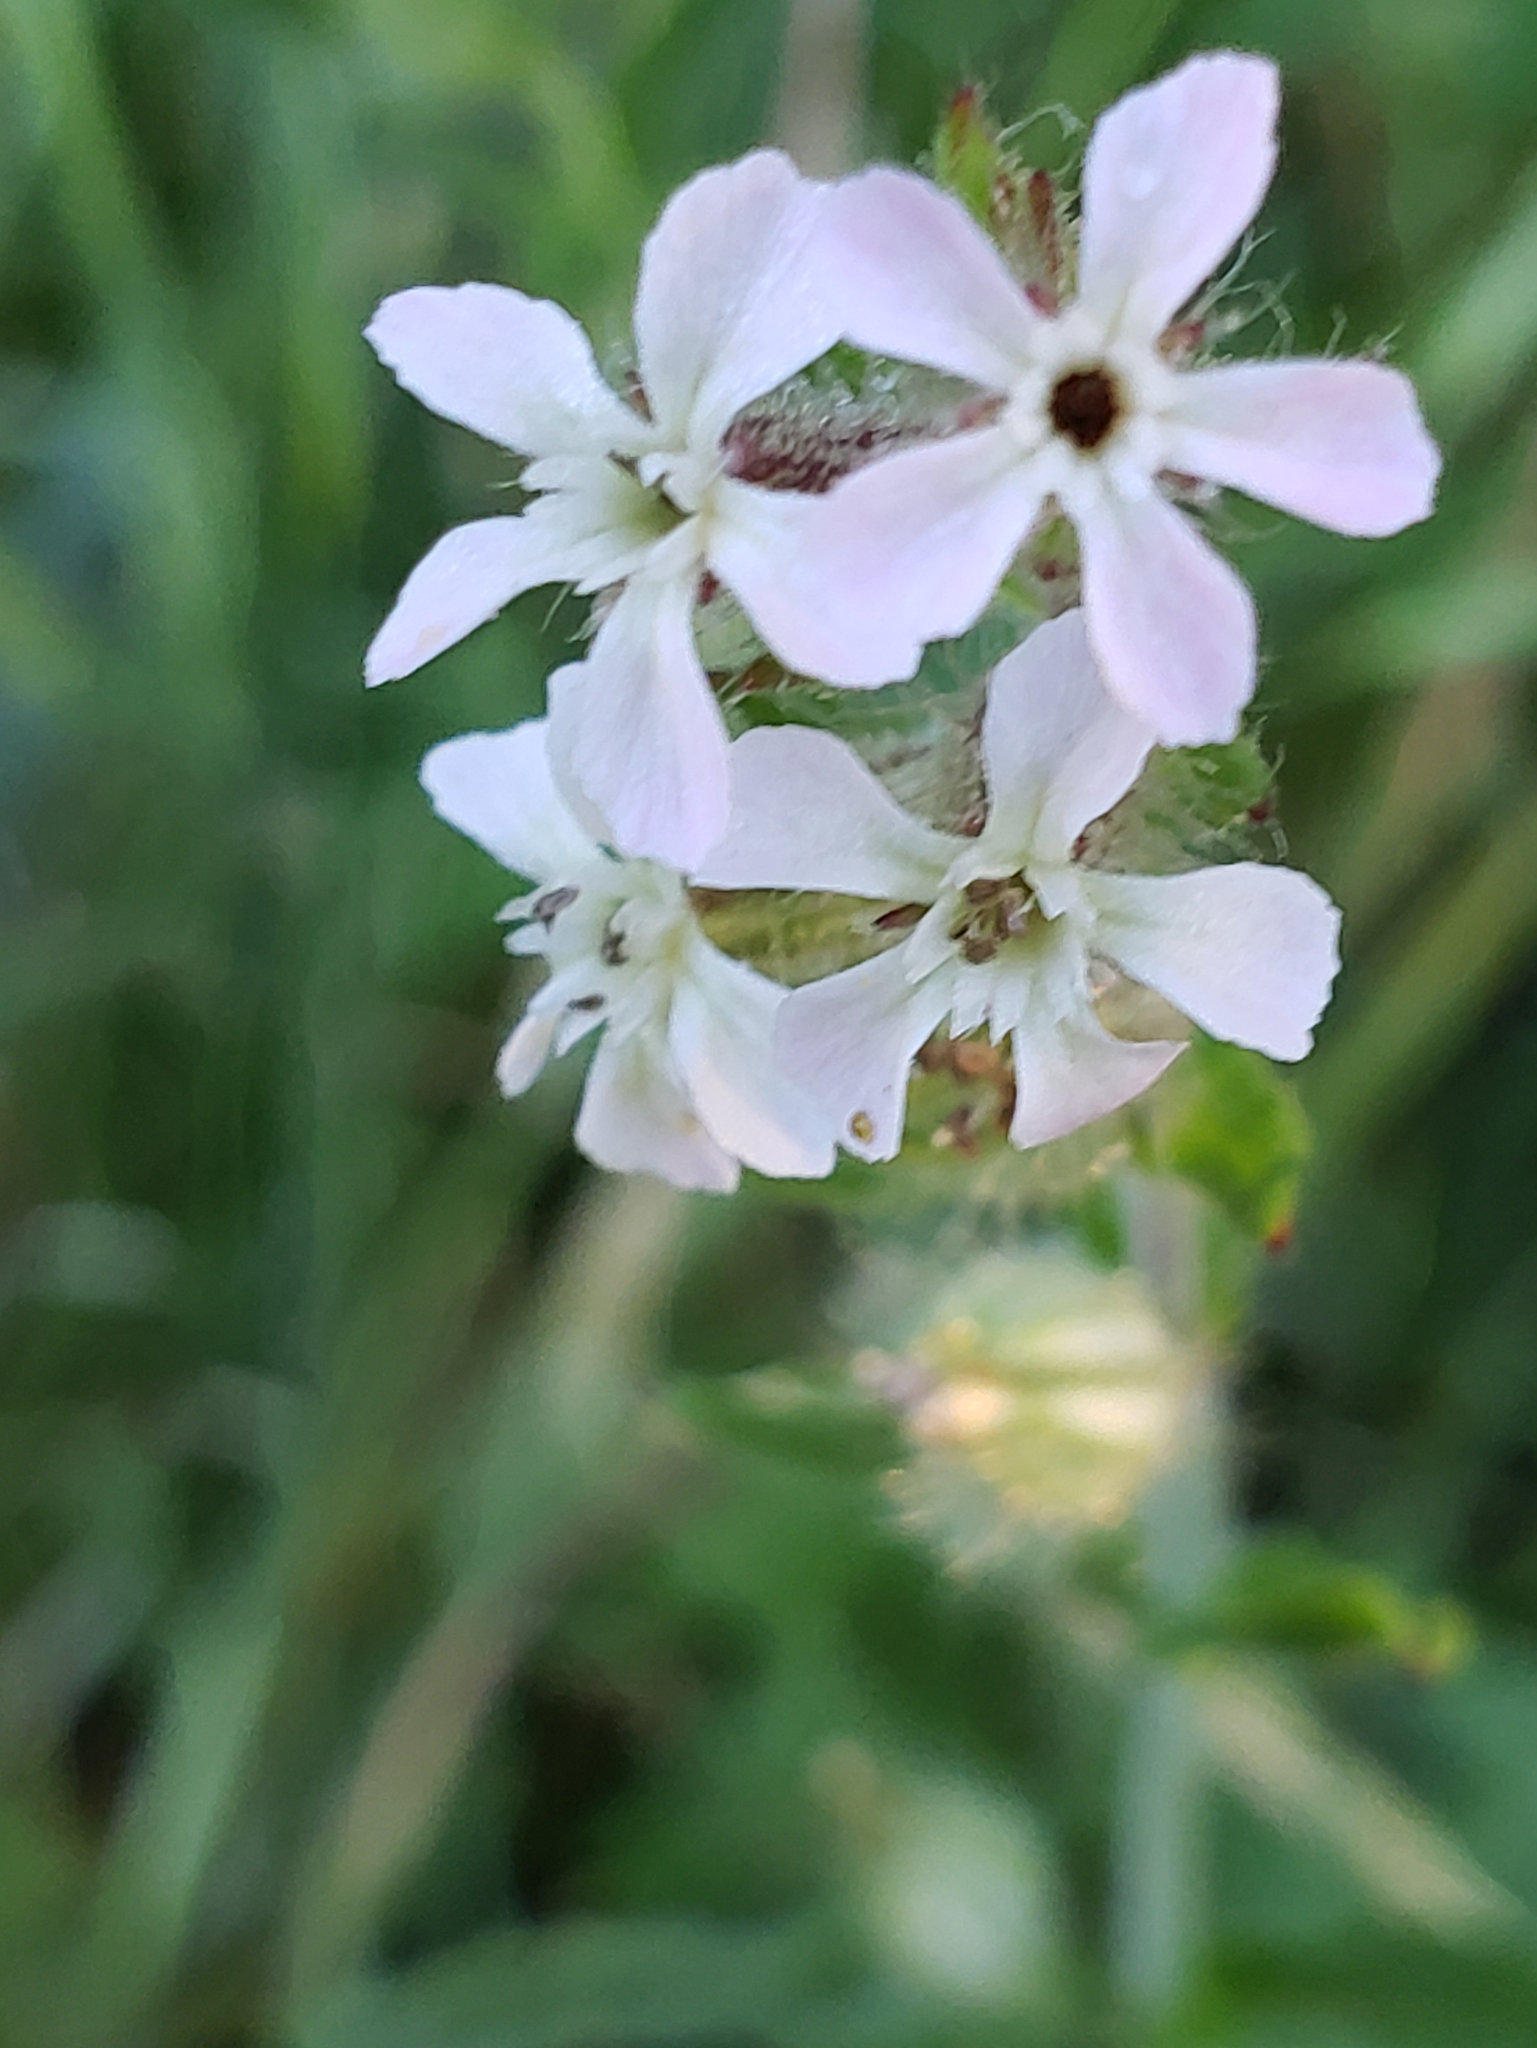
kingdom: Plantae
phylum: Tracheophyta
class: Magnoliopsida
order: Caryophyllales
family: Caryophyllaceae
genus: Silene
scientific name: Silene gallica
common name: Small-flowered catchfly
